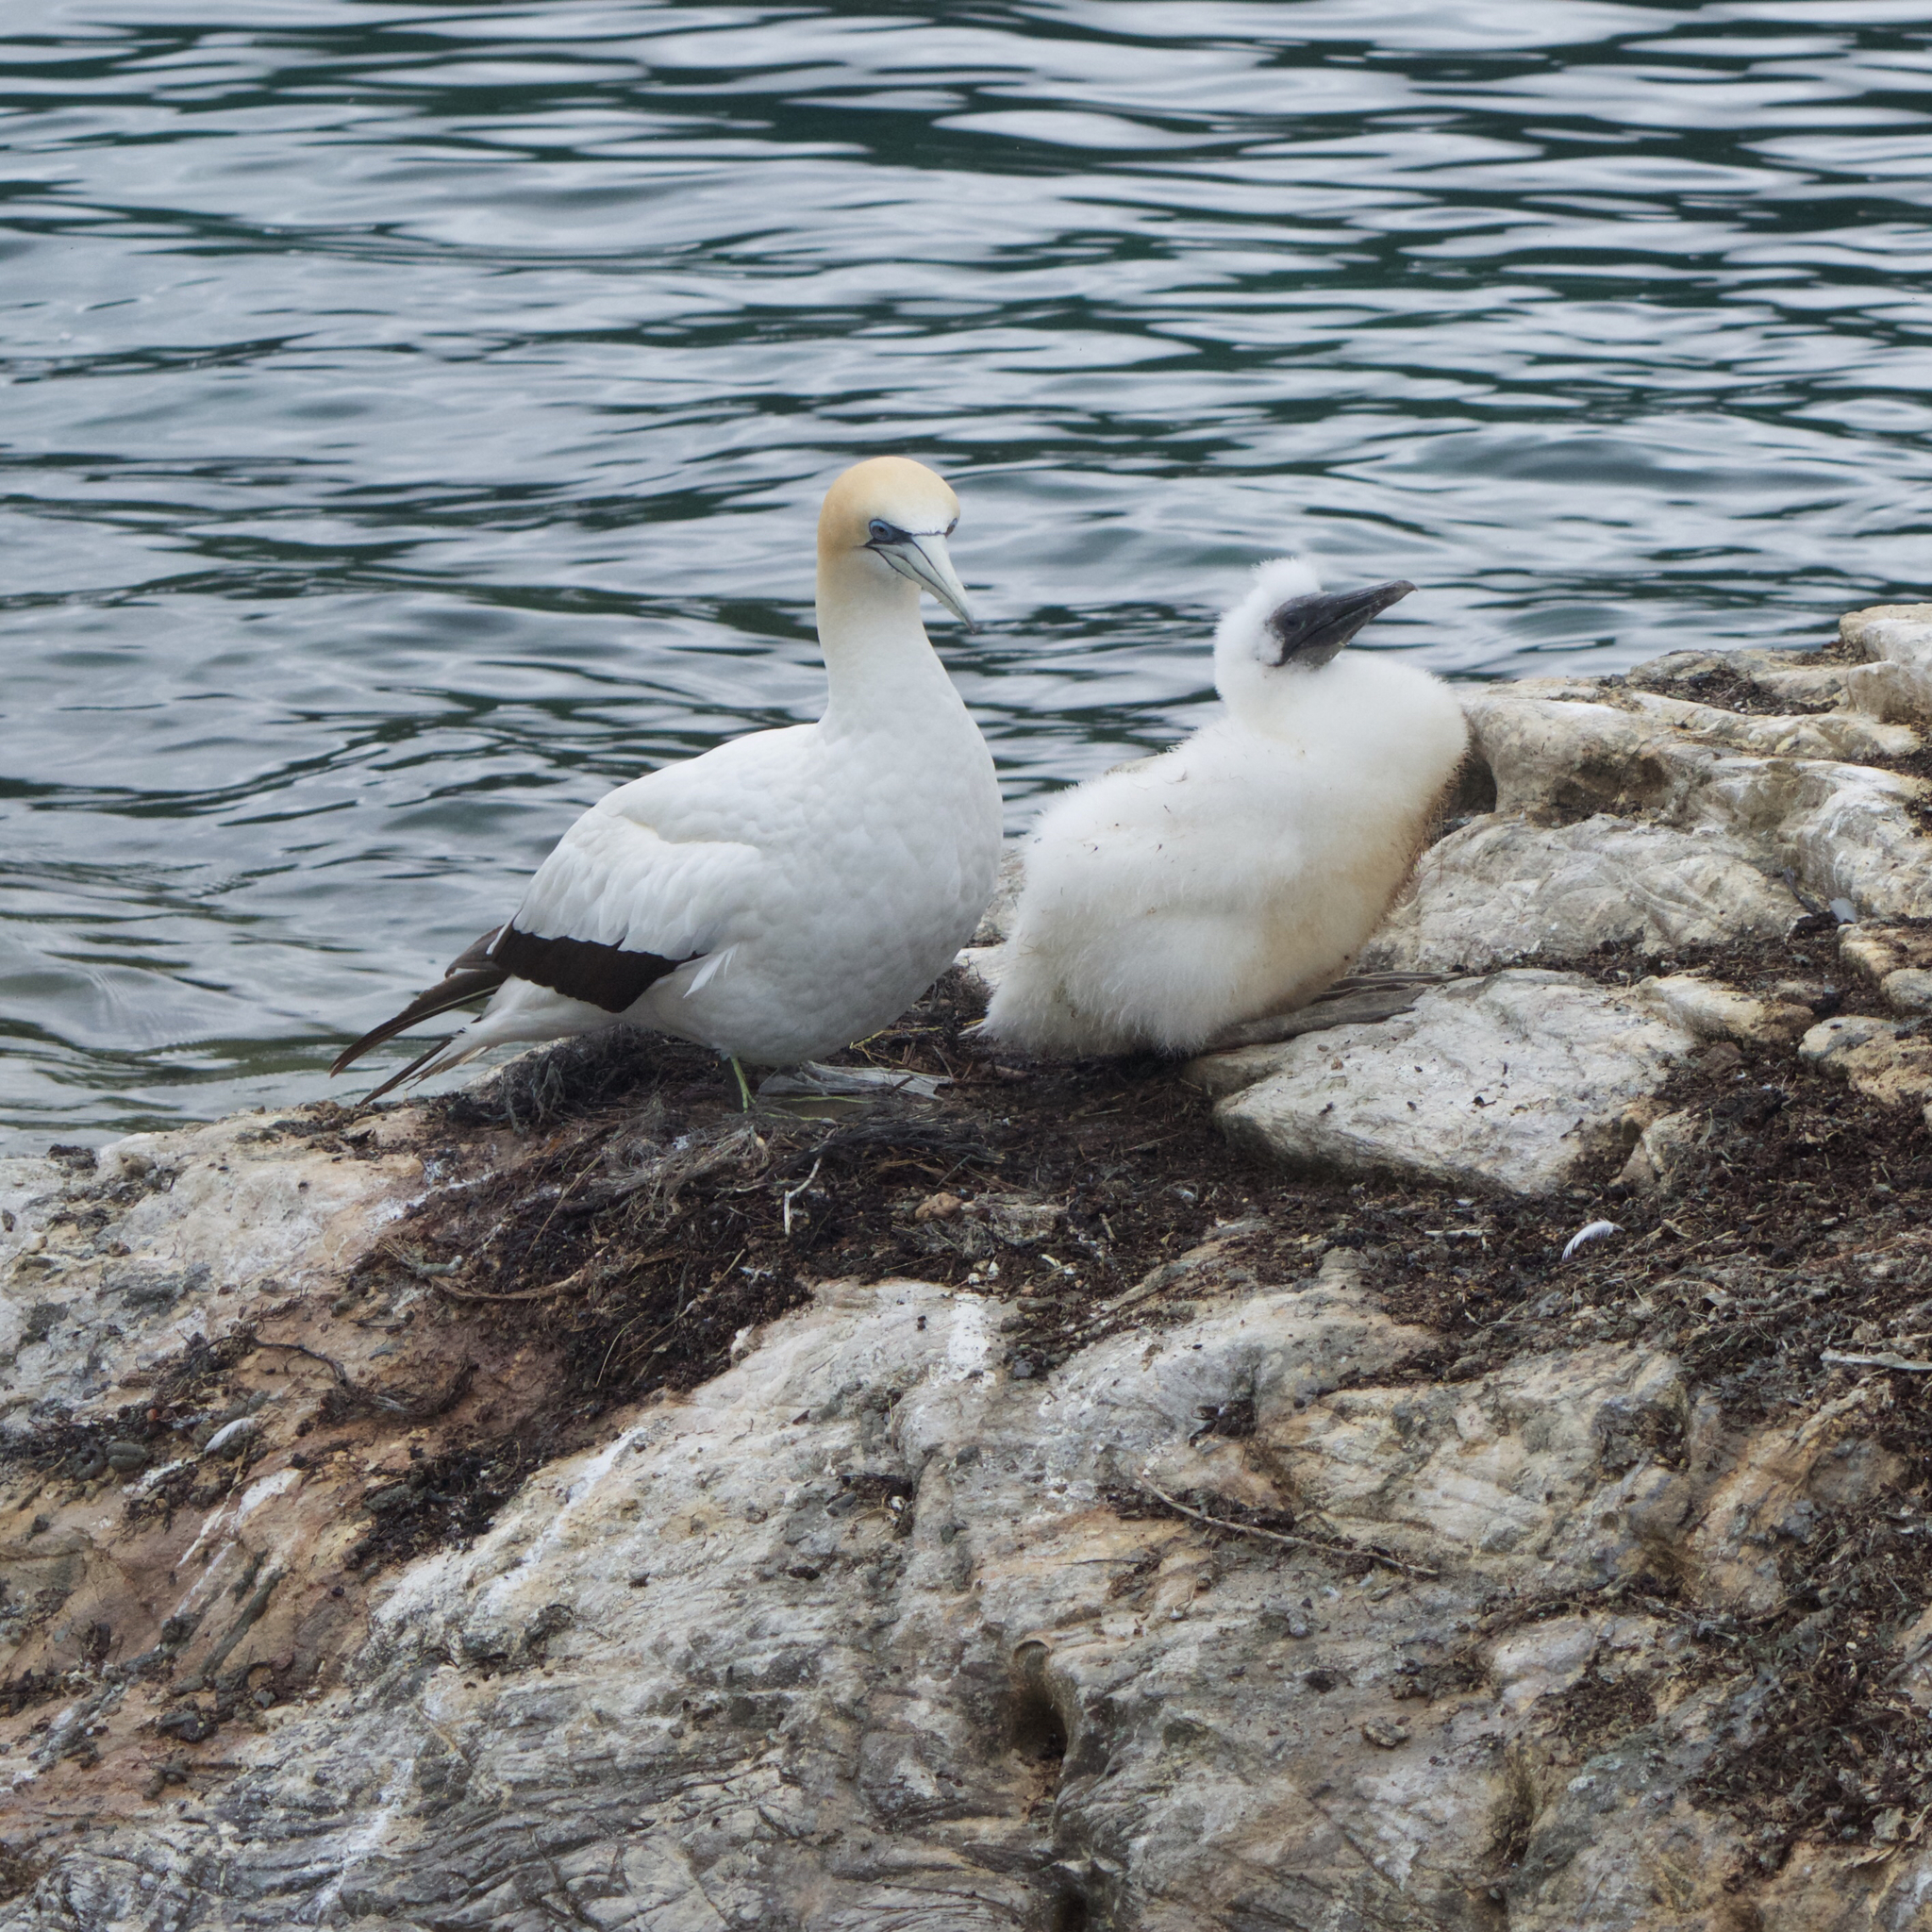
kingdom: Animalia
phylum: Chordata
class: Aves
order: Suliformes
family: Sulidae
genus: Morus
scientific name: Morus serrator
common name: Australasian gannet
